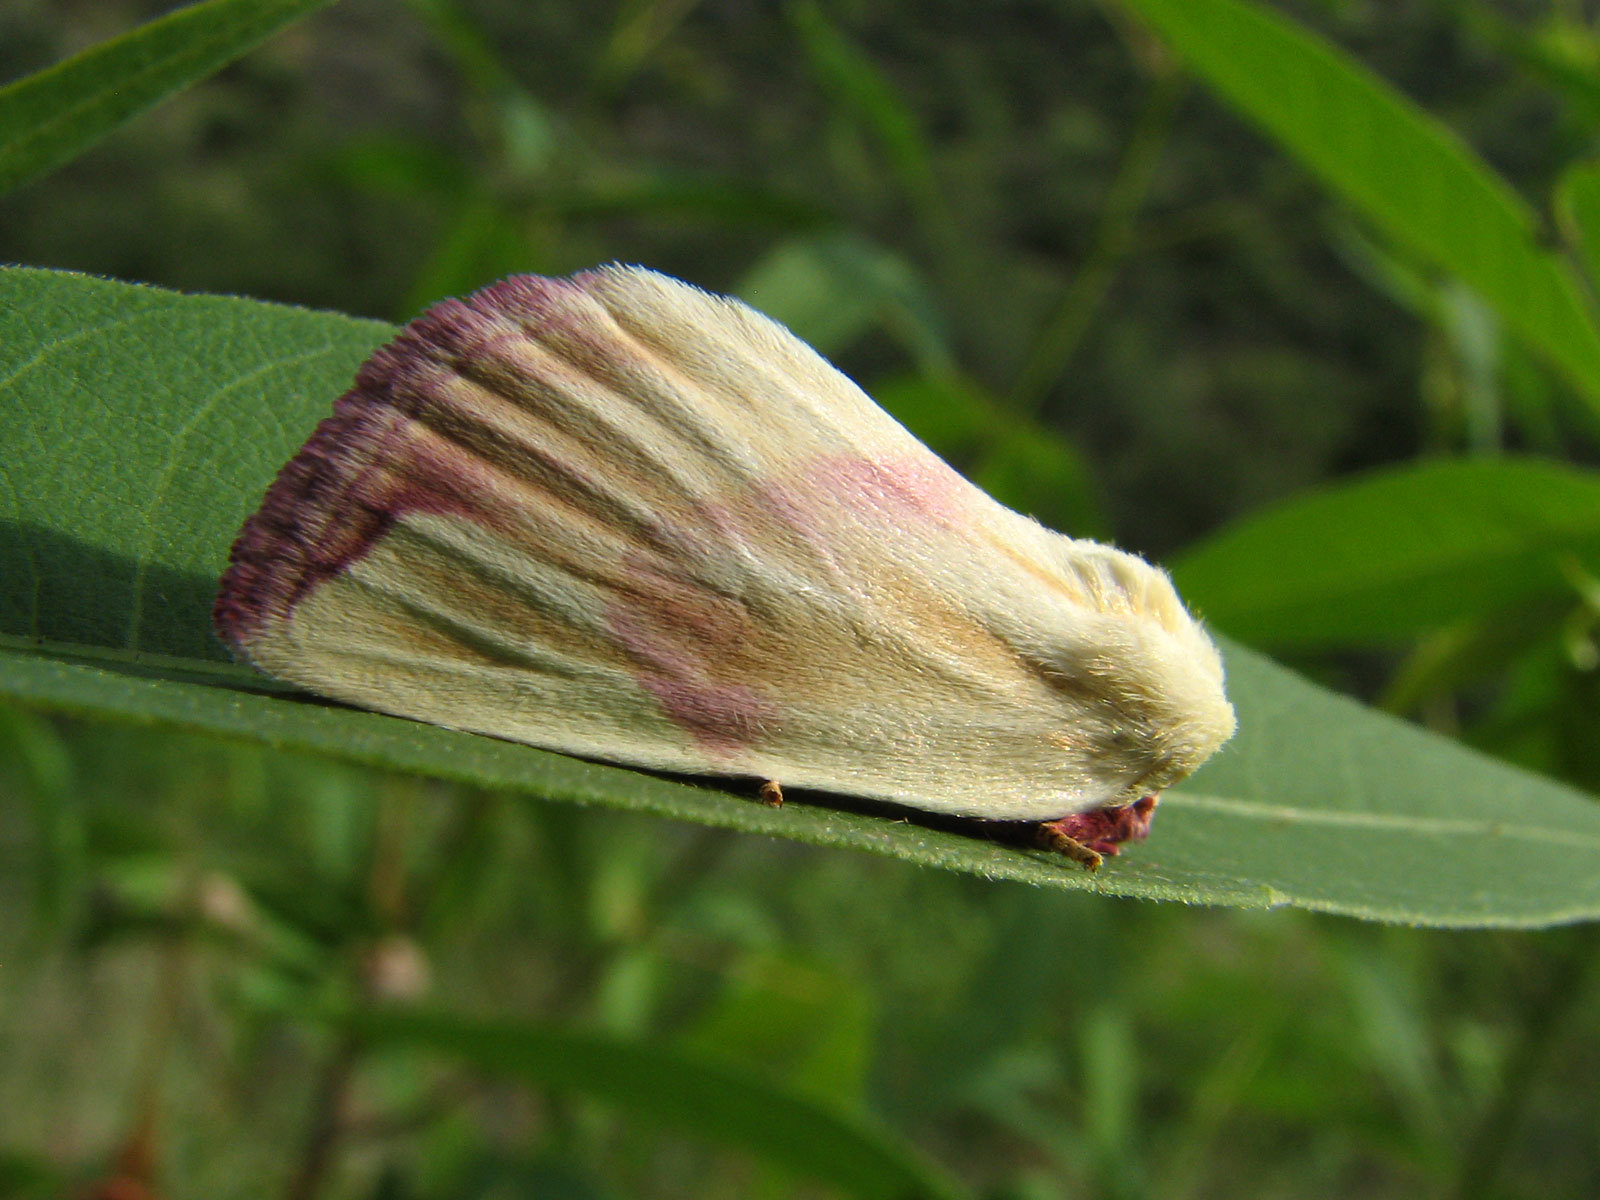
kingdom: Animalia
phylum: Arthropoda
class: Insecta
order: Lepidoptera
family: Noctuidae
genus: Thurberiphaga
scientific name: Thurberiphaga diffusa
